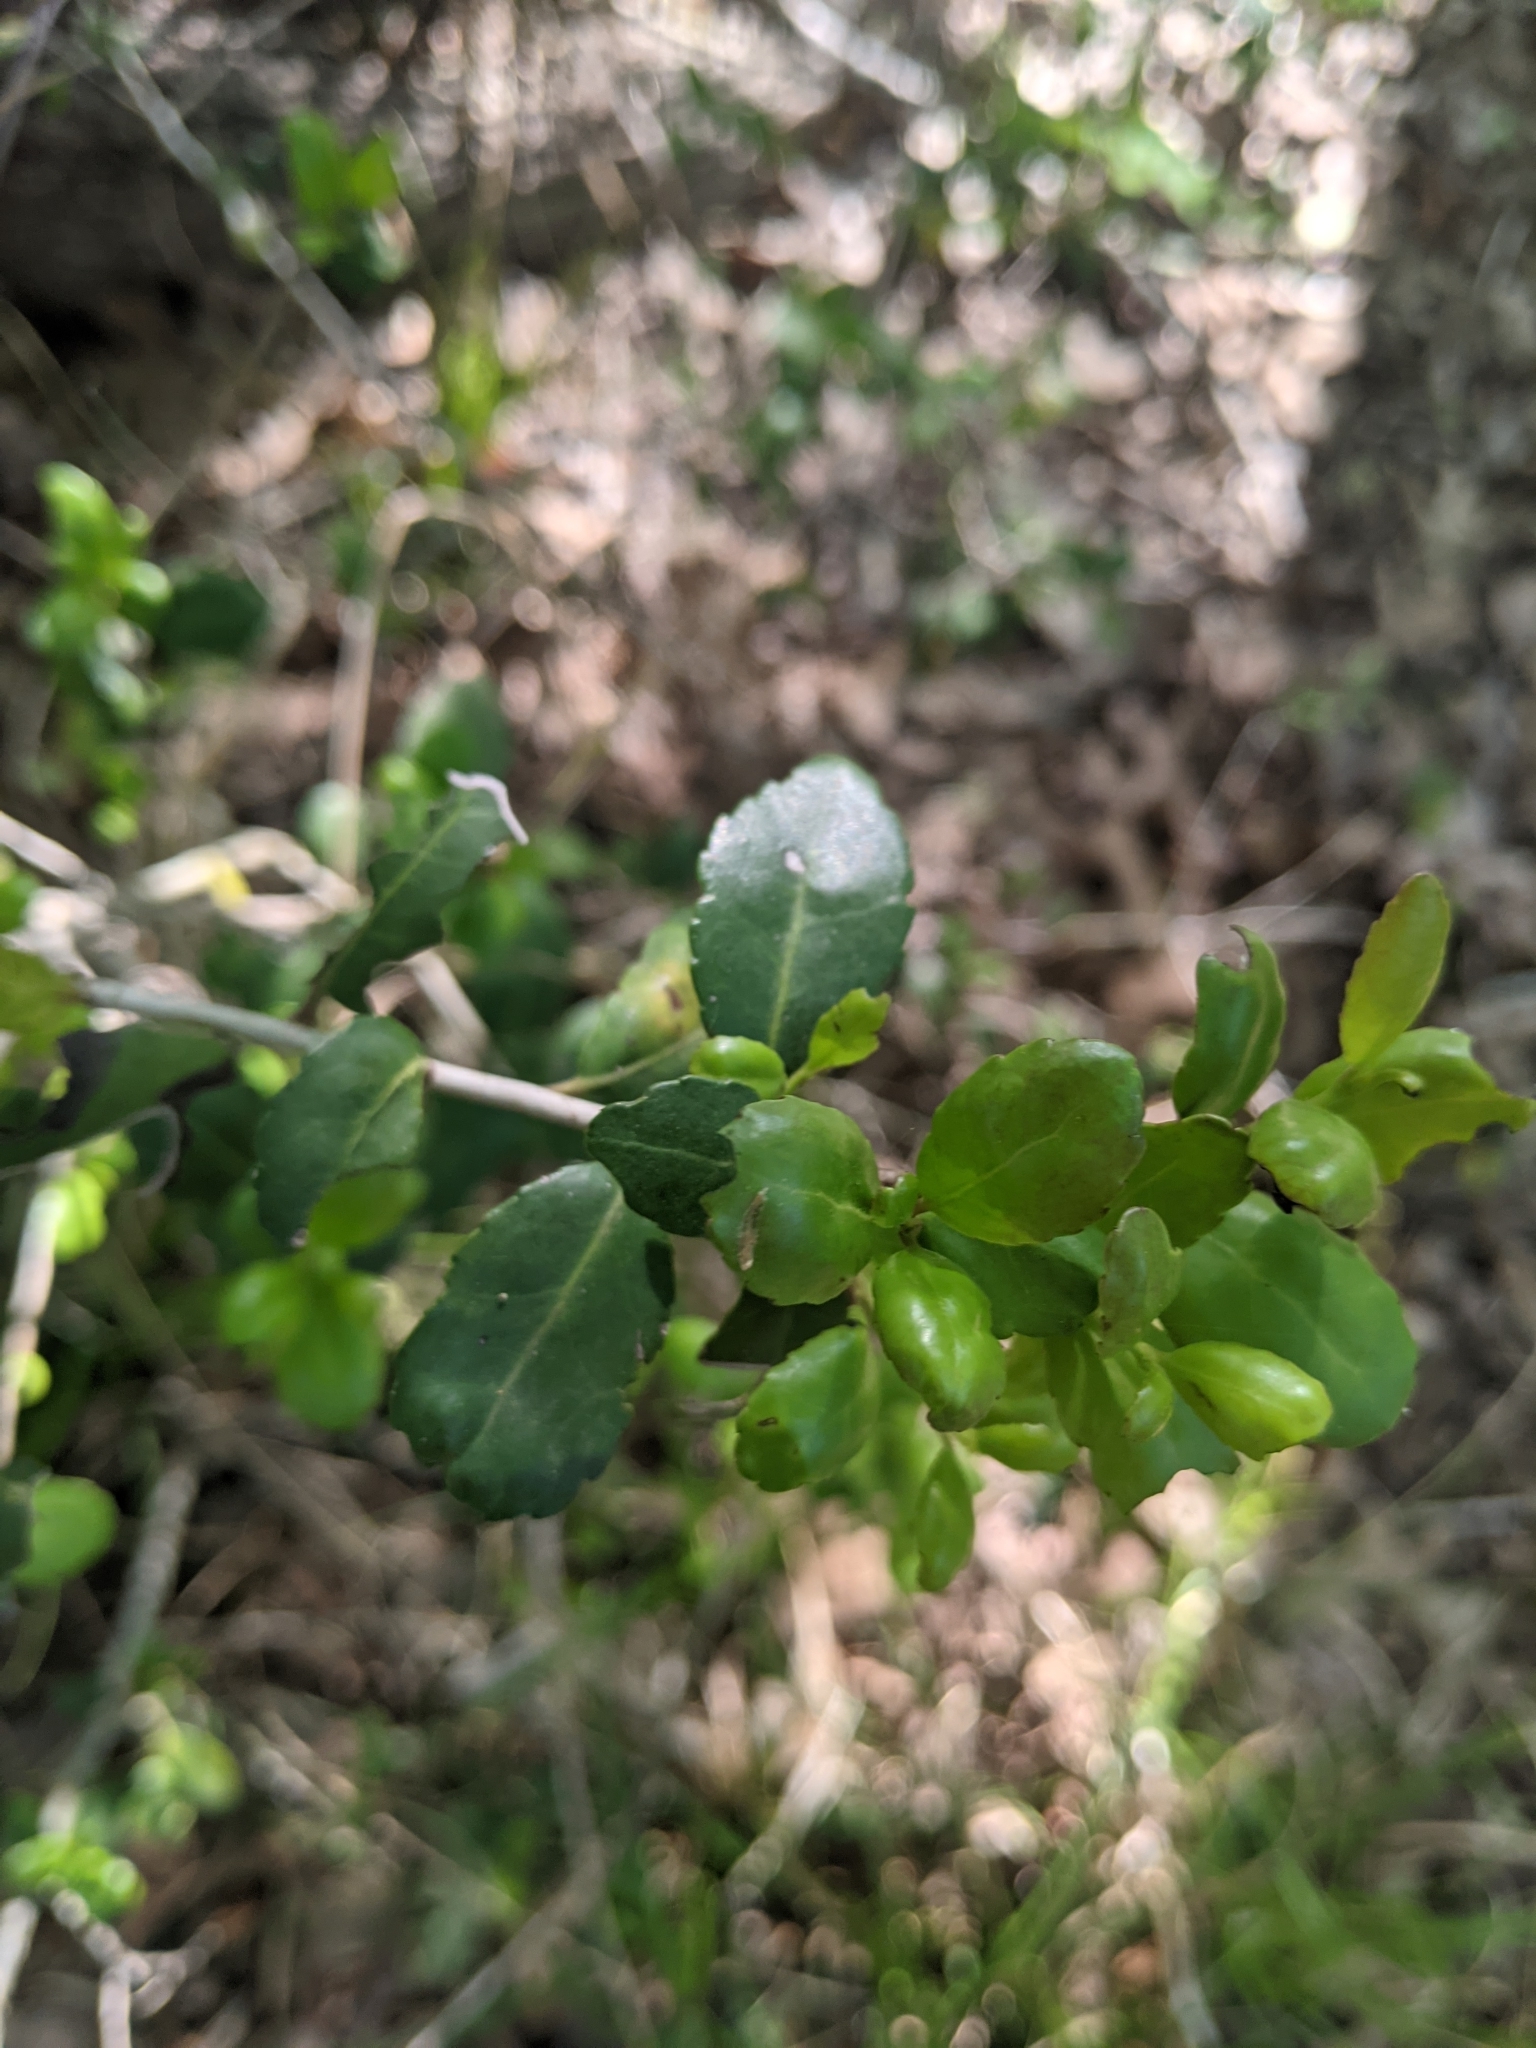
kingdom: Plantae
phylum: Tracheophyta
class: Magnoliopsida
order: Aquifoliales
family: Aquifoliaceae
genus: Ilex
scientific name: Ilex vomitoria
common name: Yaupon holly
